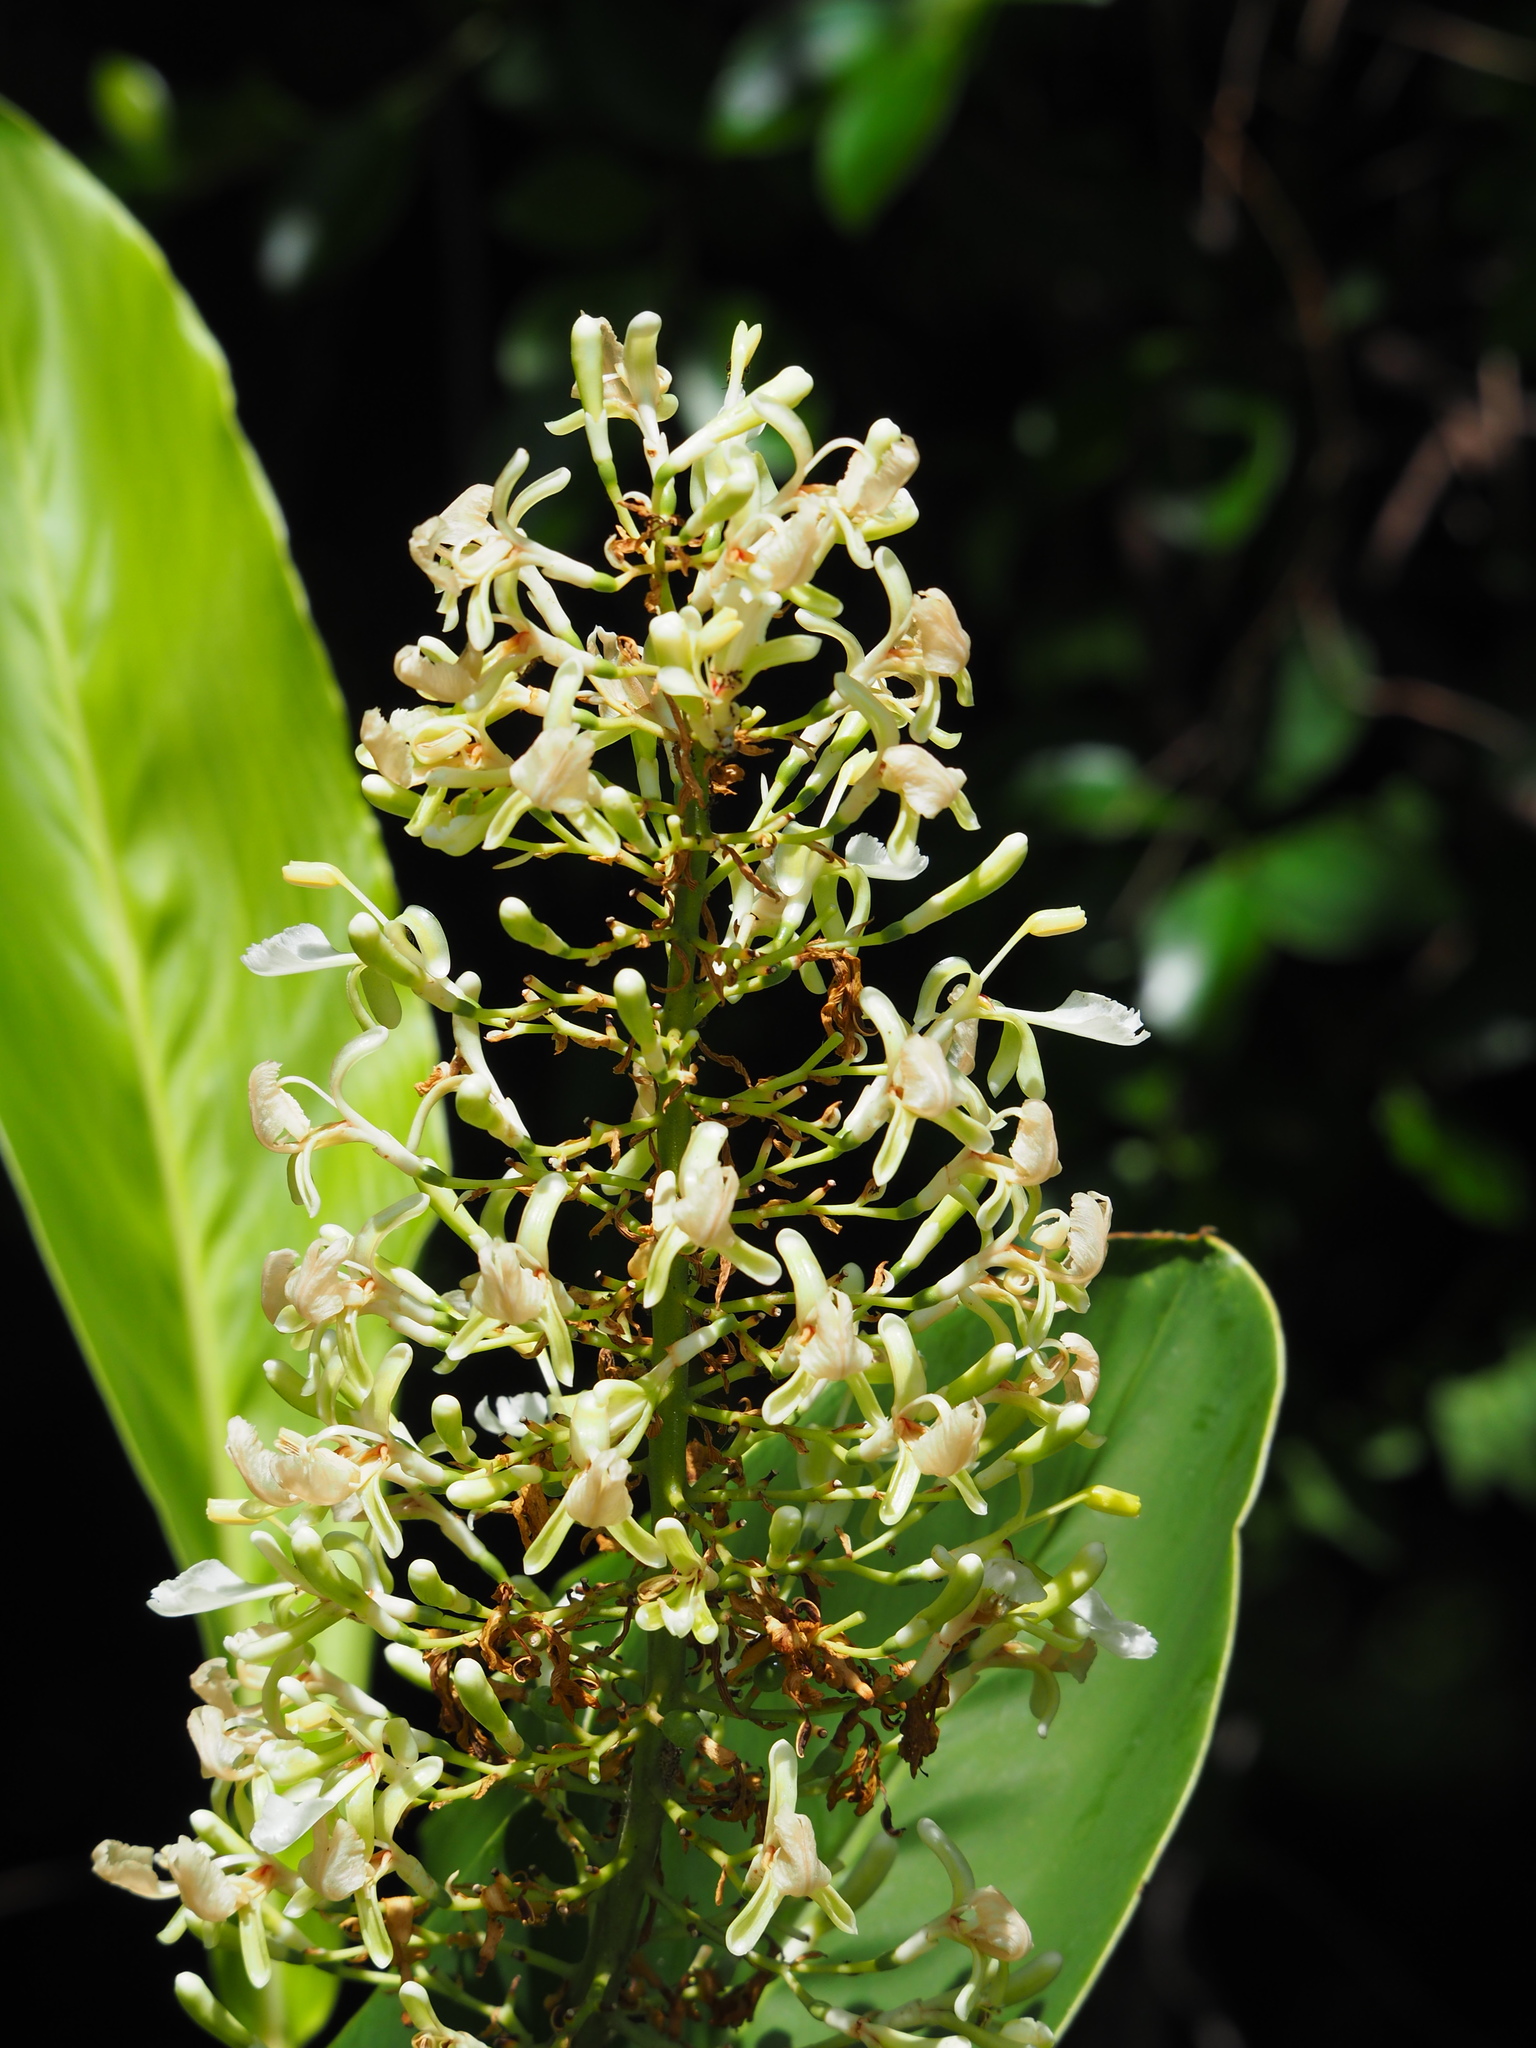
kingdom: Plantae
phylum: Tracheophyta
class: Liliopsida
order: Zingiberales
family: Zingiberaceae
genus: Alpinia
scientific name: Alpinia galanga
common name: Siamese-ginger
